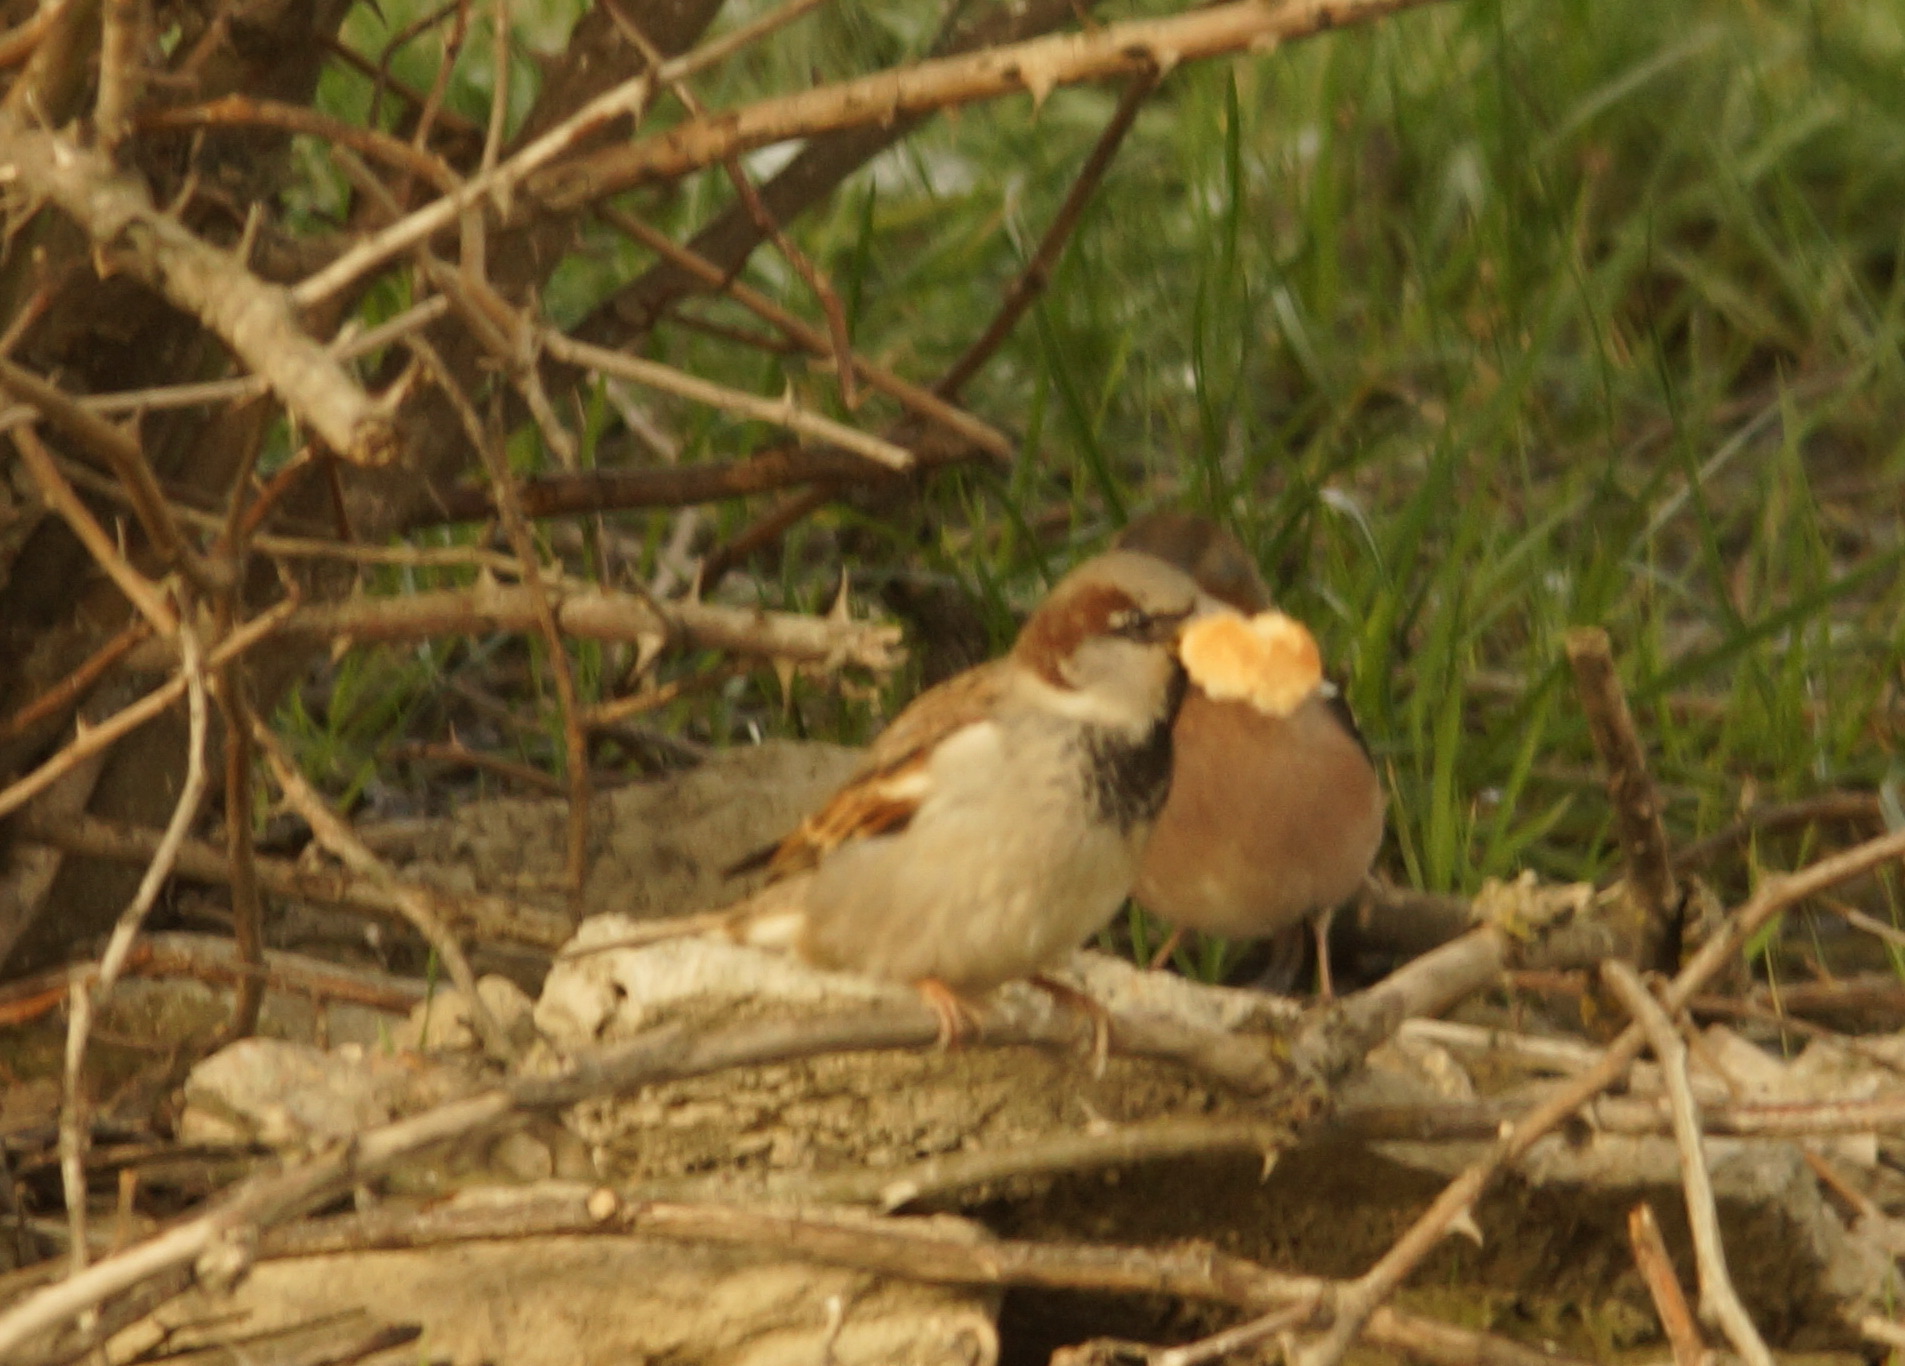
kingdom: Animalia
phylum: Chordata
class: Aves
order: Passeriformes
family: Fringillidae
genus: Fringilla
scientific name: Fringilla coelebs
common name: Common chaffinch
